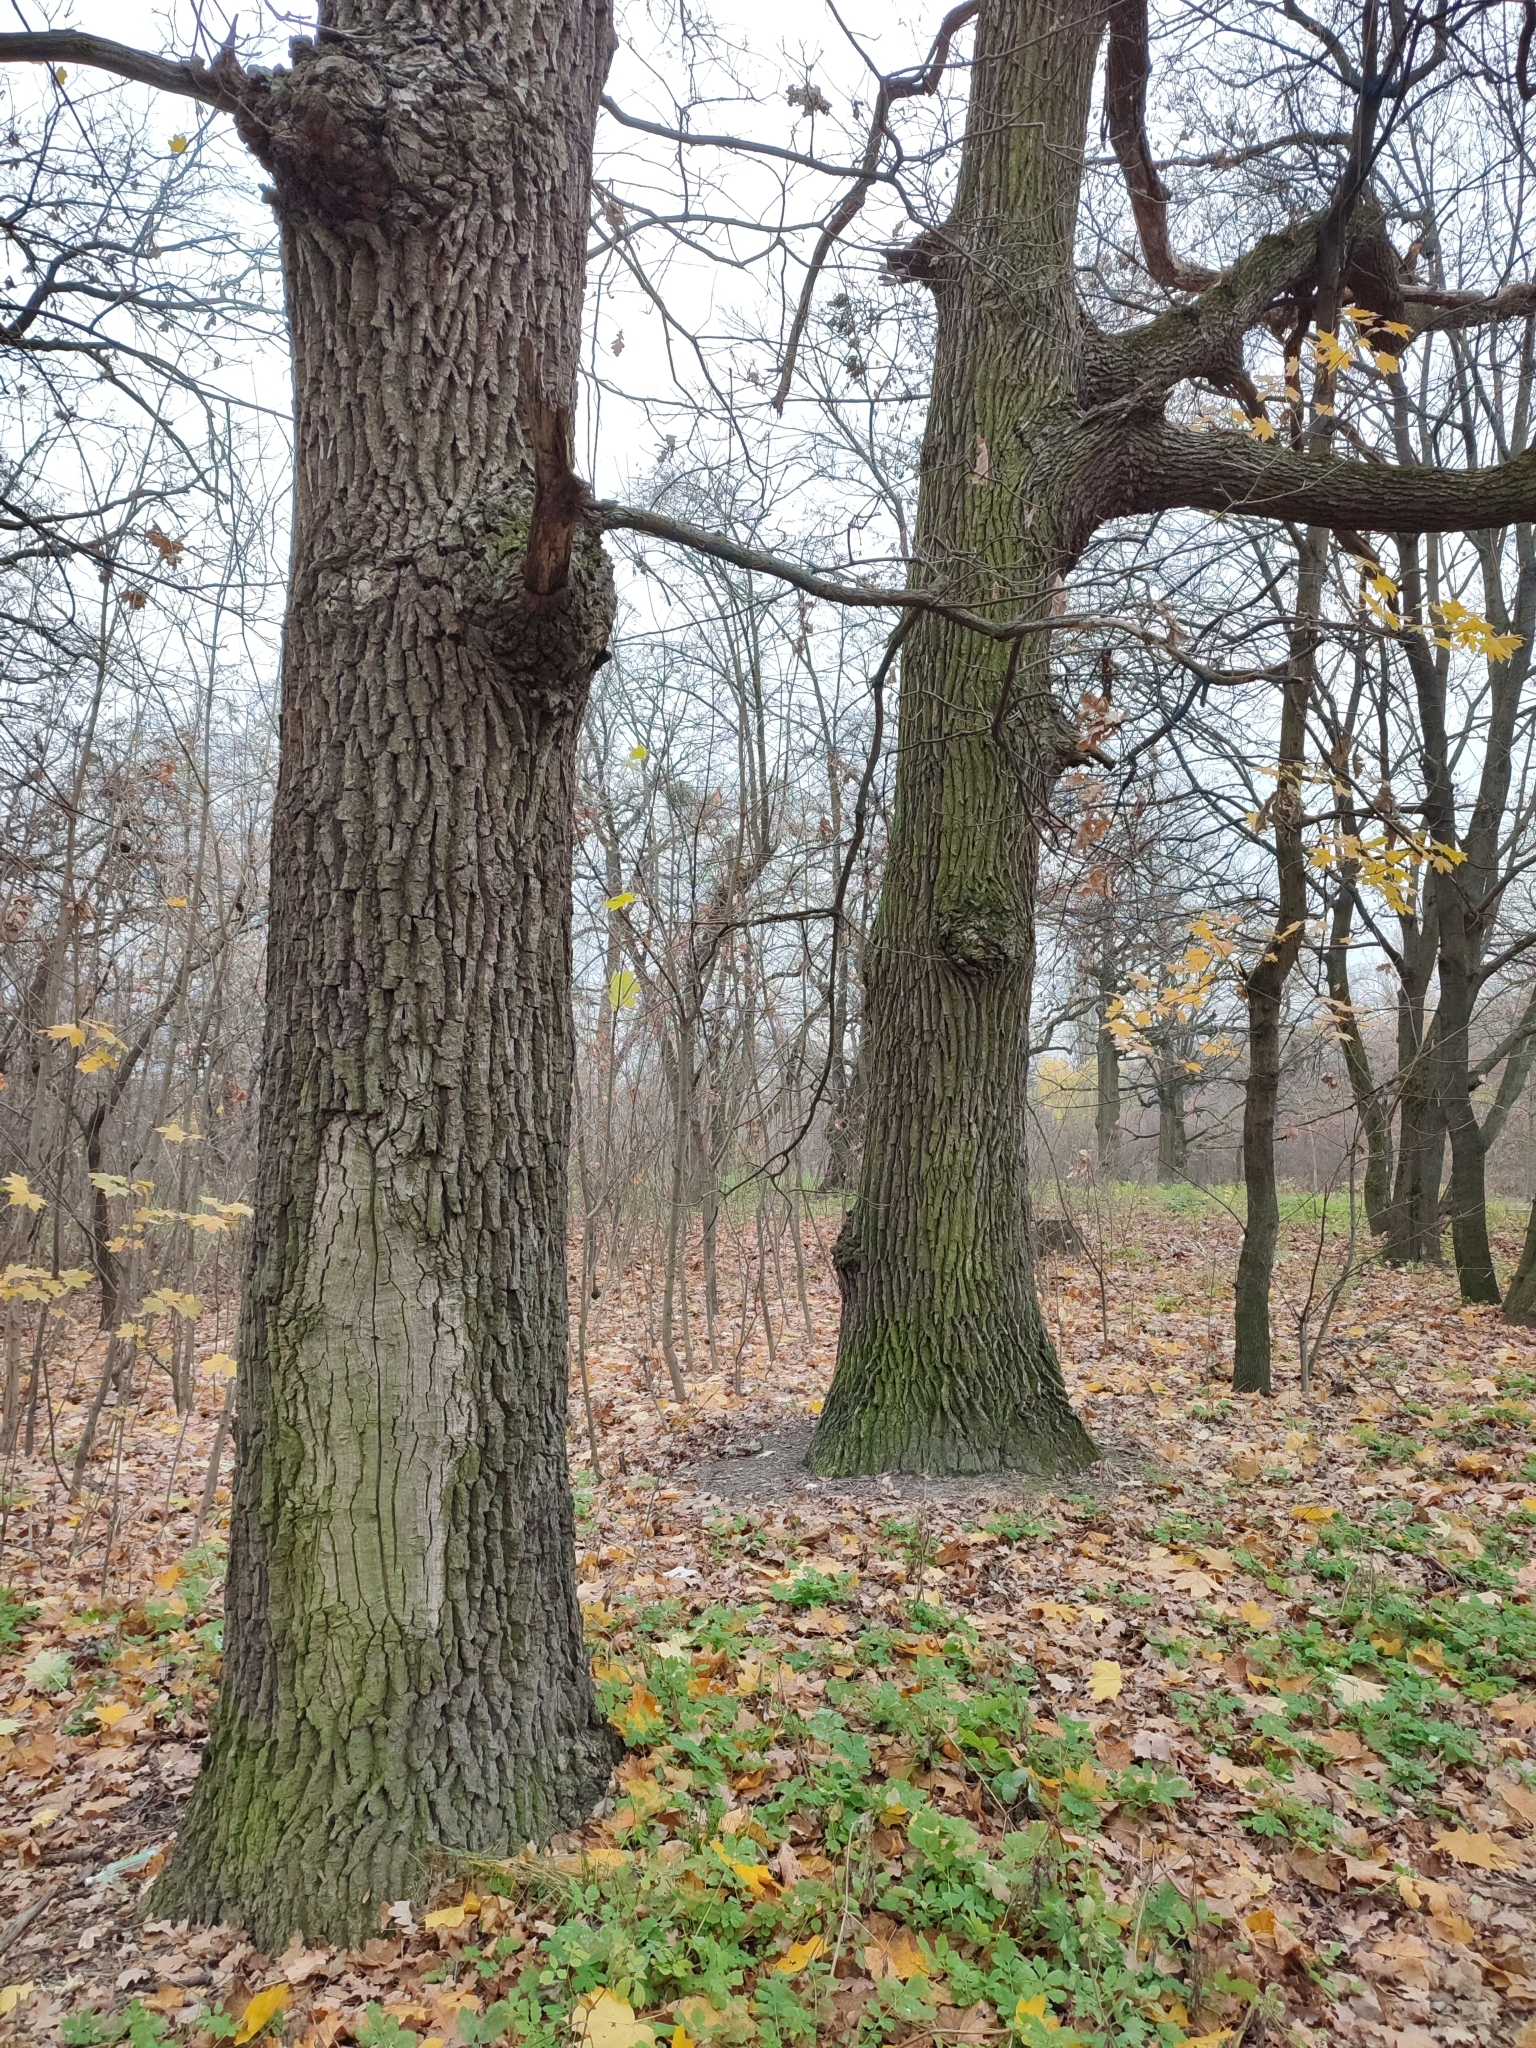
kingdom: Plantae
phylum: Tracheophyta
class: Magnoliopsida
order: Fagales
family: Fagaceae
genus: Quercus
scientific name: Quercus robur
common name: Pedunculate oak
